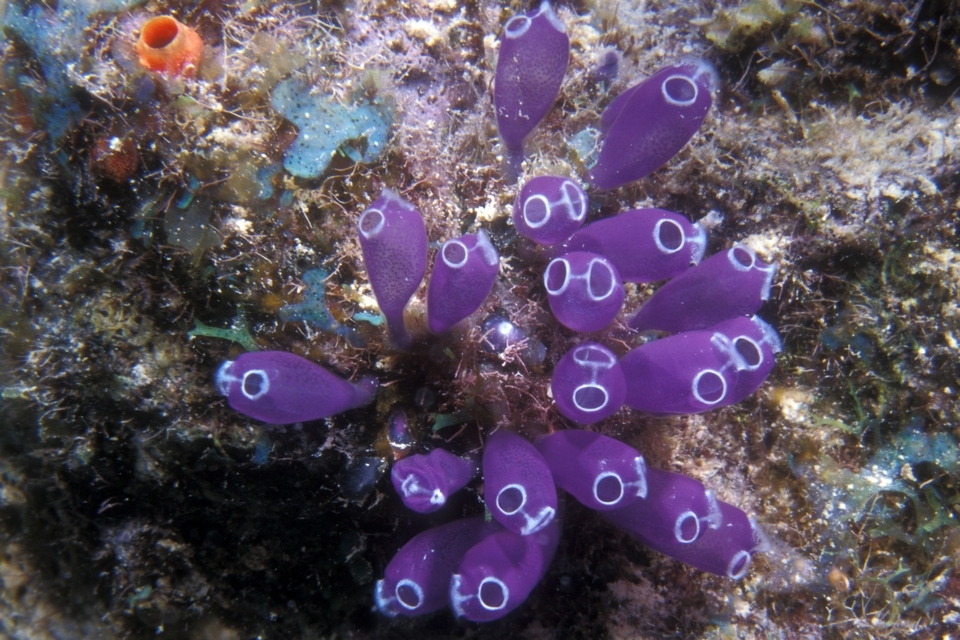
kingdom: Animalia
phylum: Chordata
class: Ascidiacea
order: Aplousobranchia
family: Clavelinidae
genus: Clavelina
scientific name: Clavelina puertosecensis
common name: Blue bell tunicate
